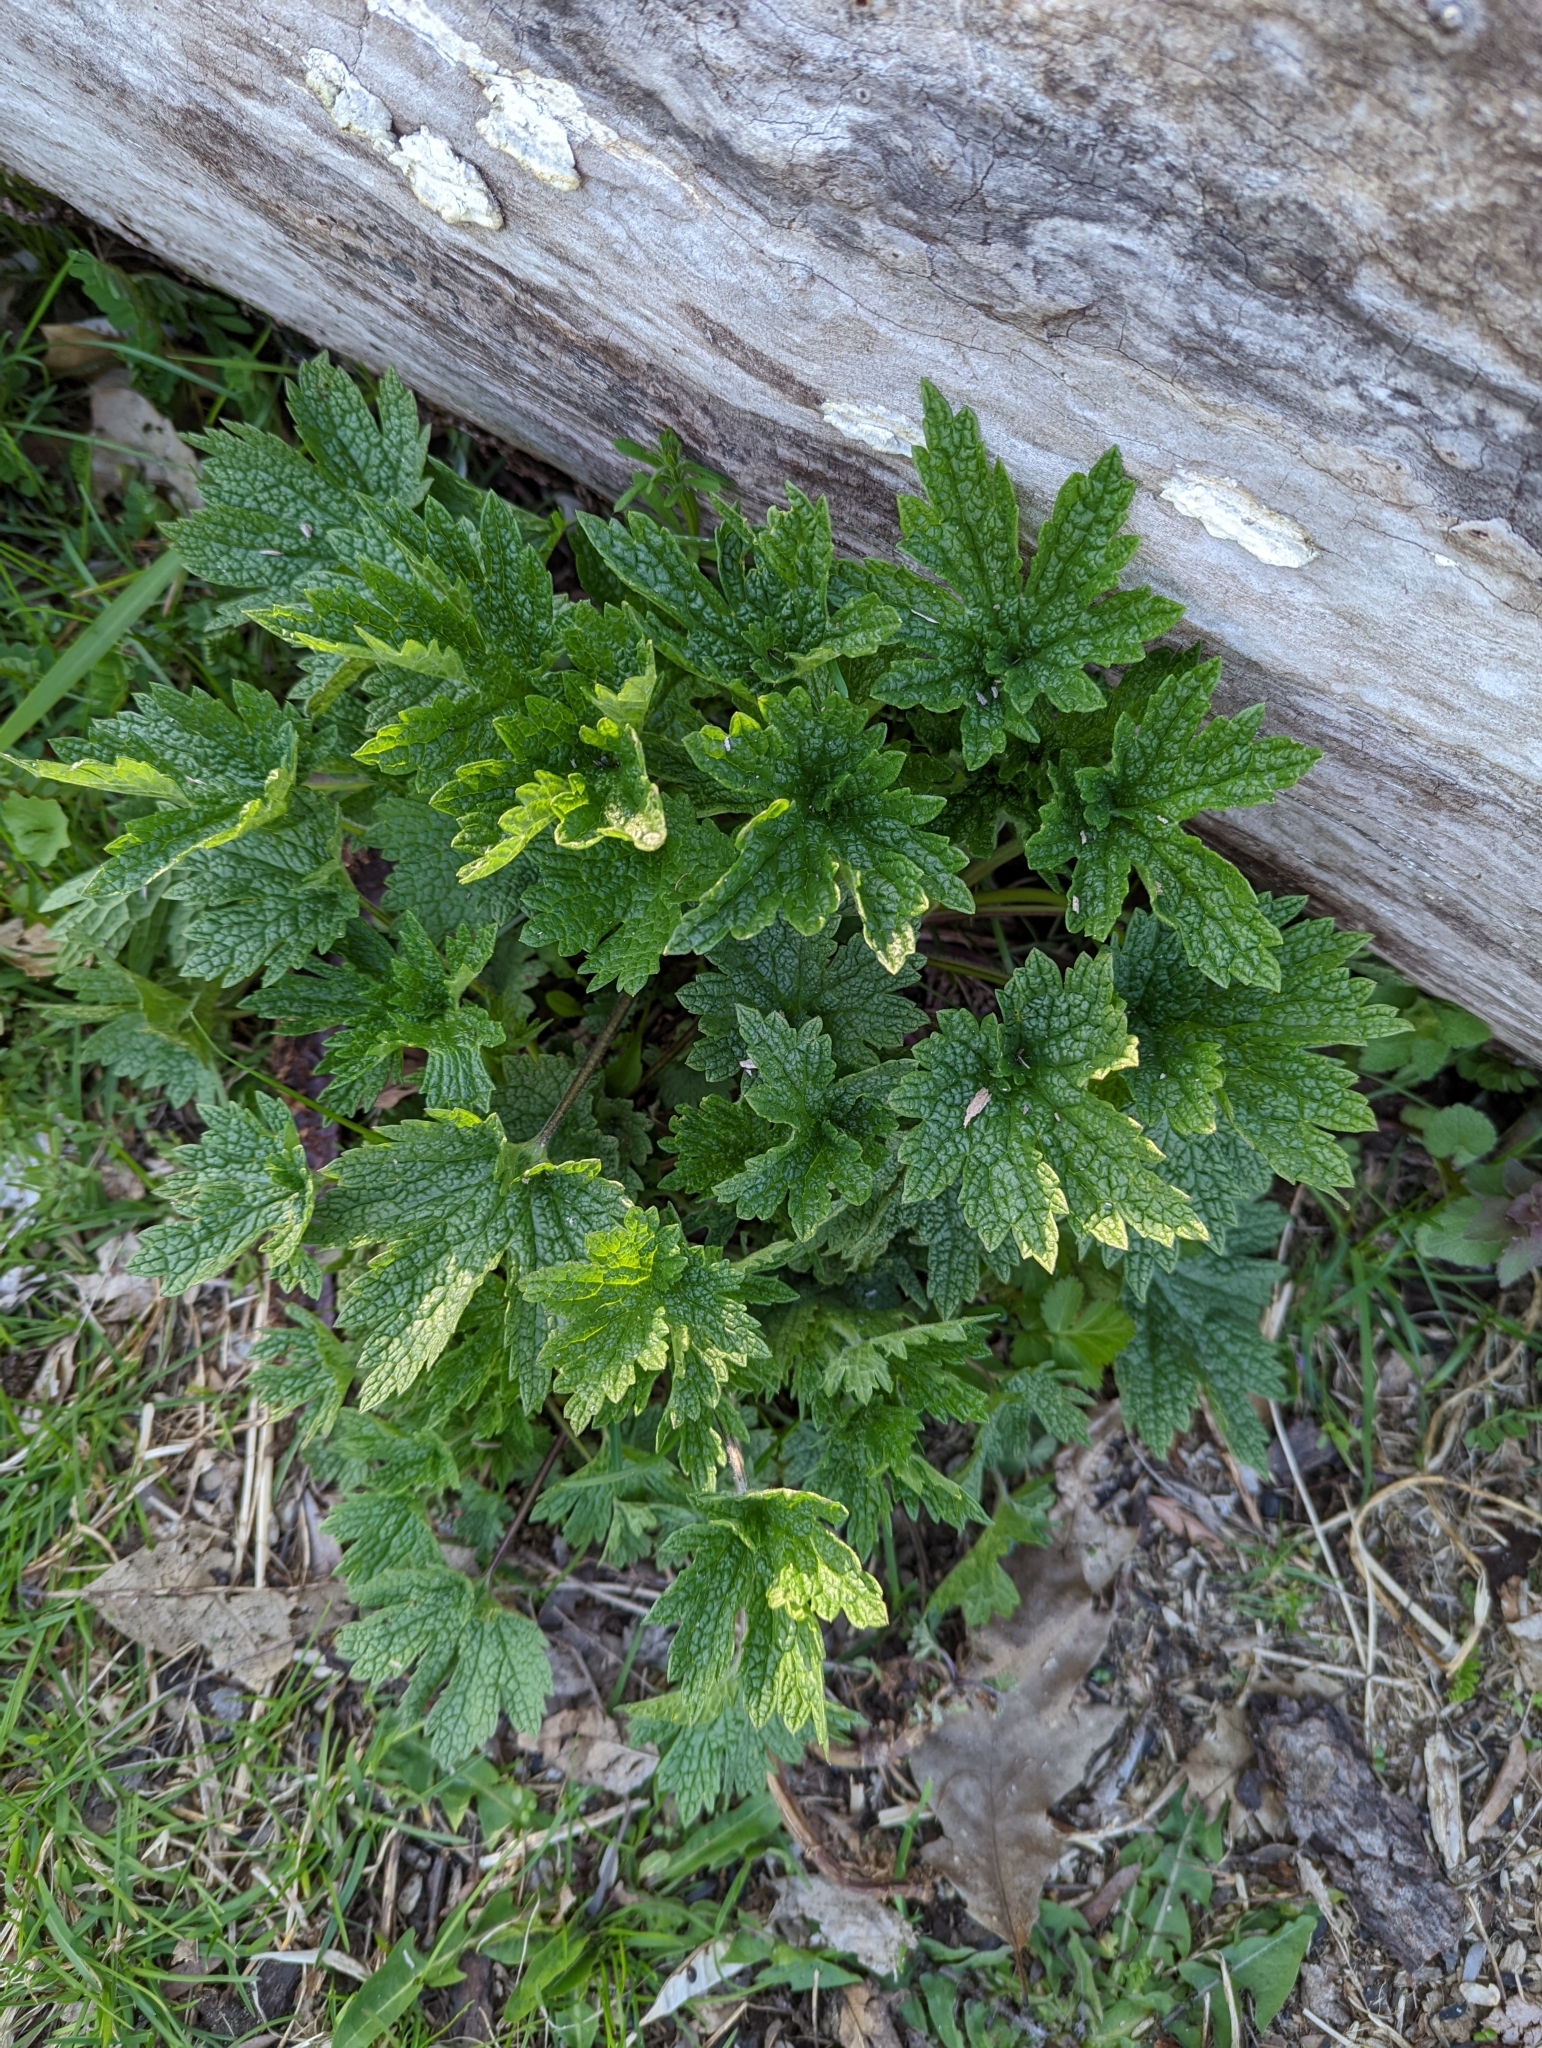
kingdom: Plantae
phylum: Tracheophyta
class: Magnoliopsida
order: Lamiales
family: Lamiaceae
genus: Leonurus
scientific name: Leonurus cardiaca
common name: Motherwort
